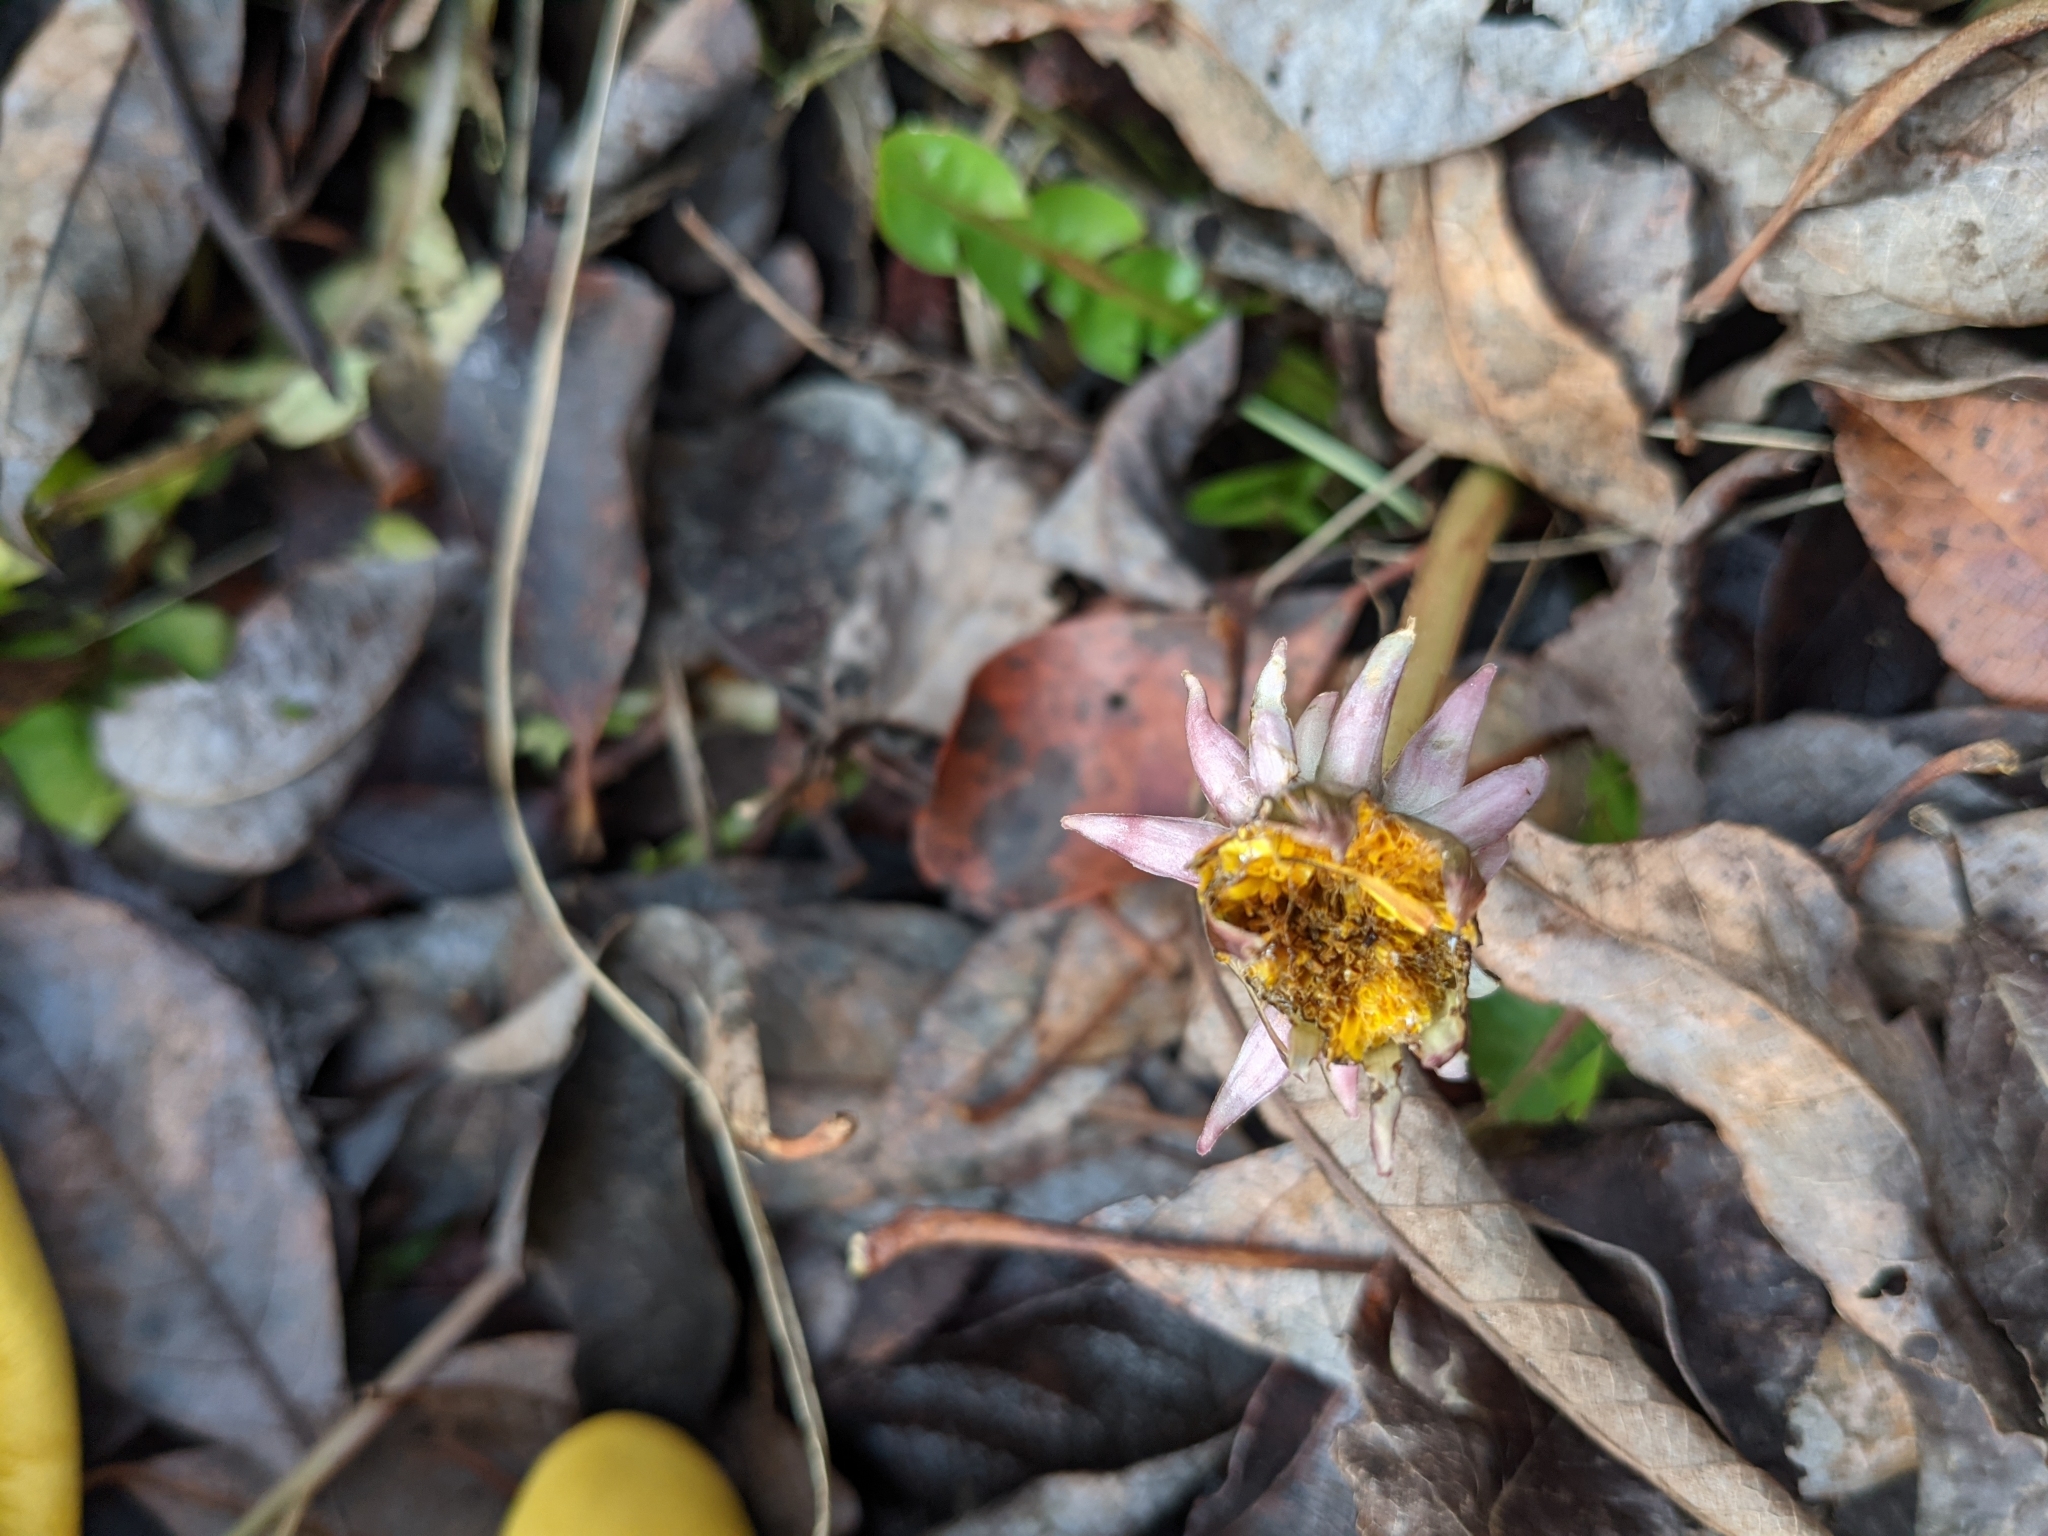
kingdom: Plantae
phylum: Tracheophyta
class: Magnoliopsida
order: Asterales
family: Asteraceae
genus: Taraxacum
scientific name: Taraxacum officinale
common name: Common dandelion
